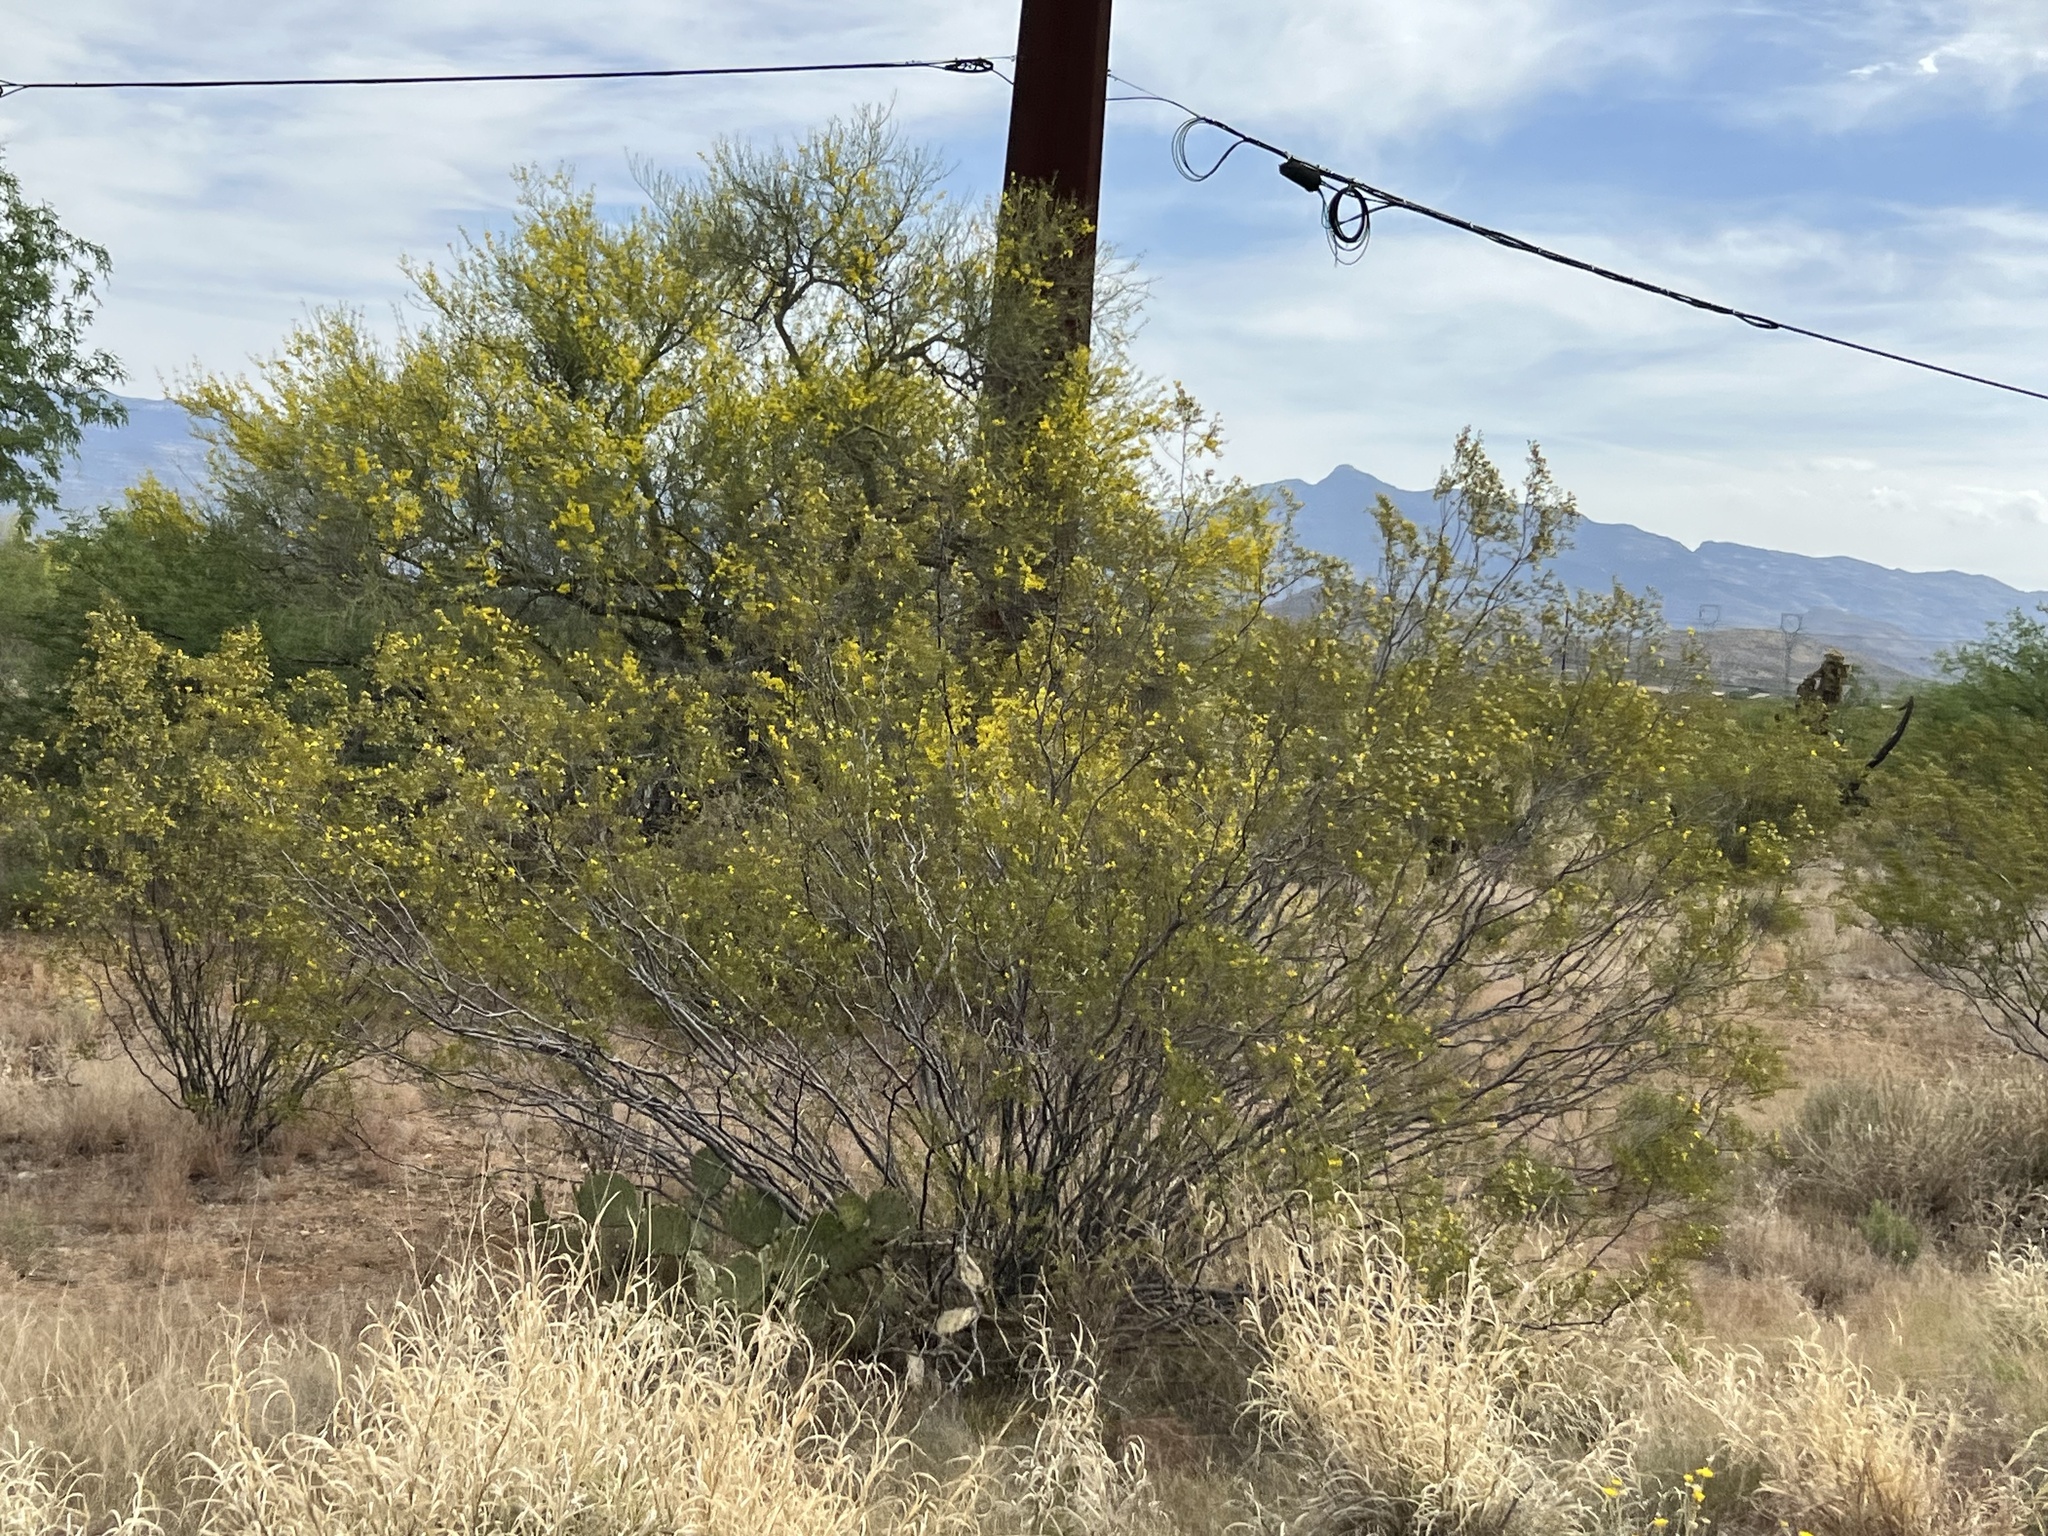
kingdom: Plantae
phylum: Tracheophyta
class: Magnoliopsida
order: Zygophyllales
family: Zygophyllaceae
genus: Larrea
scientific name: Larrea tridentata
